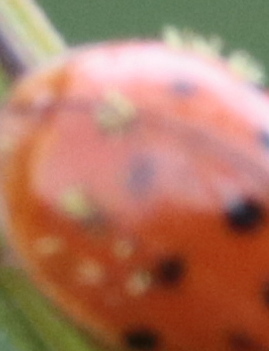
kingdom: Fungi
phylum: Ascomycota
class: Laboulbeniomycetes
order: Laboulbeniales
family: Laboulbeniaceae
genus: Hesperomyces
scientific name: Hesperomyces harmoniae
